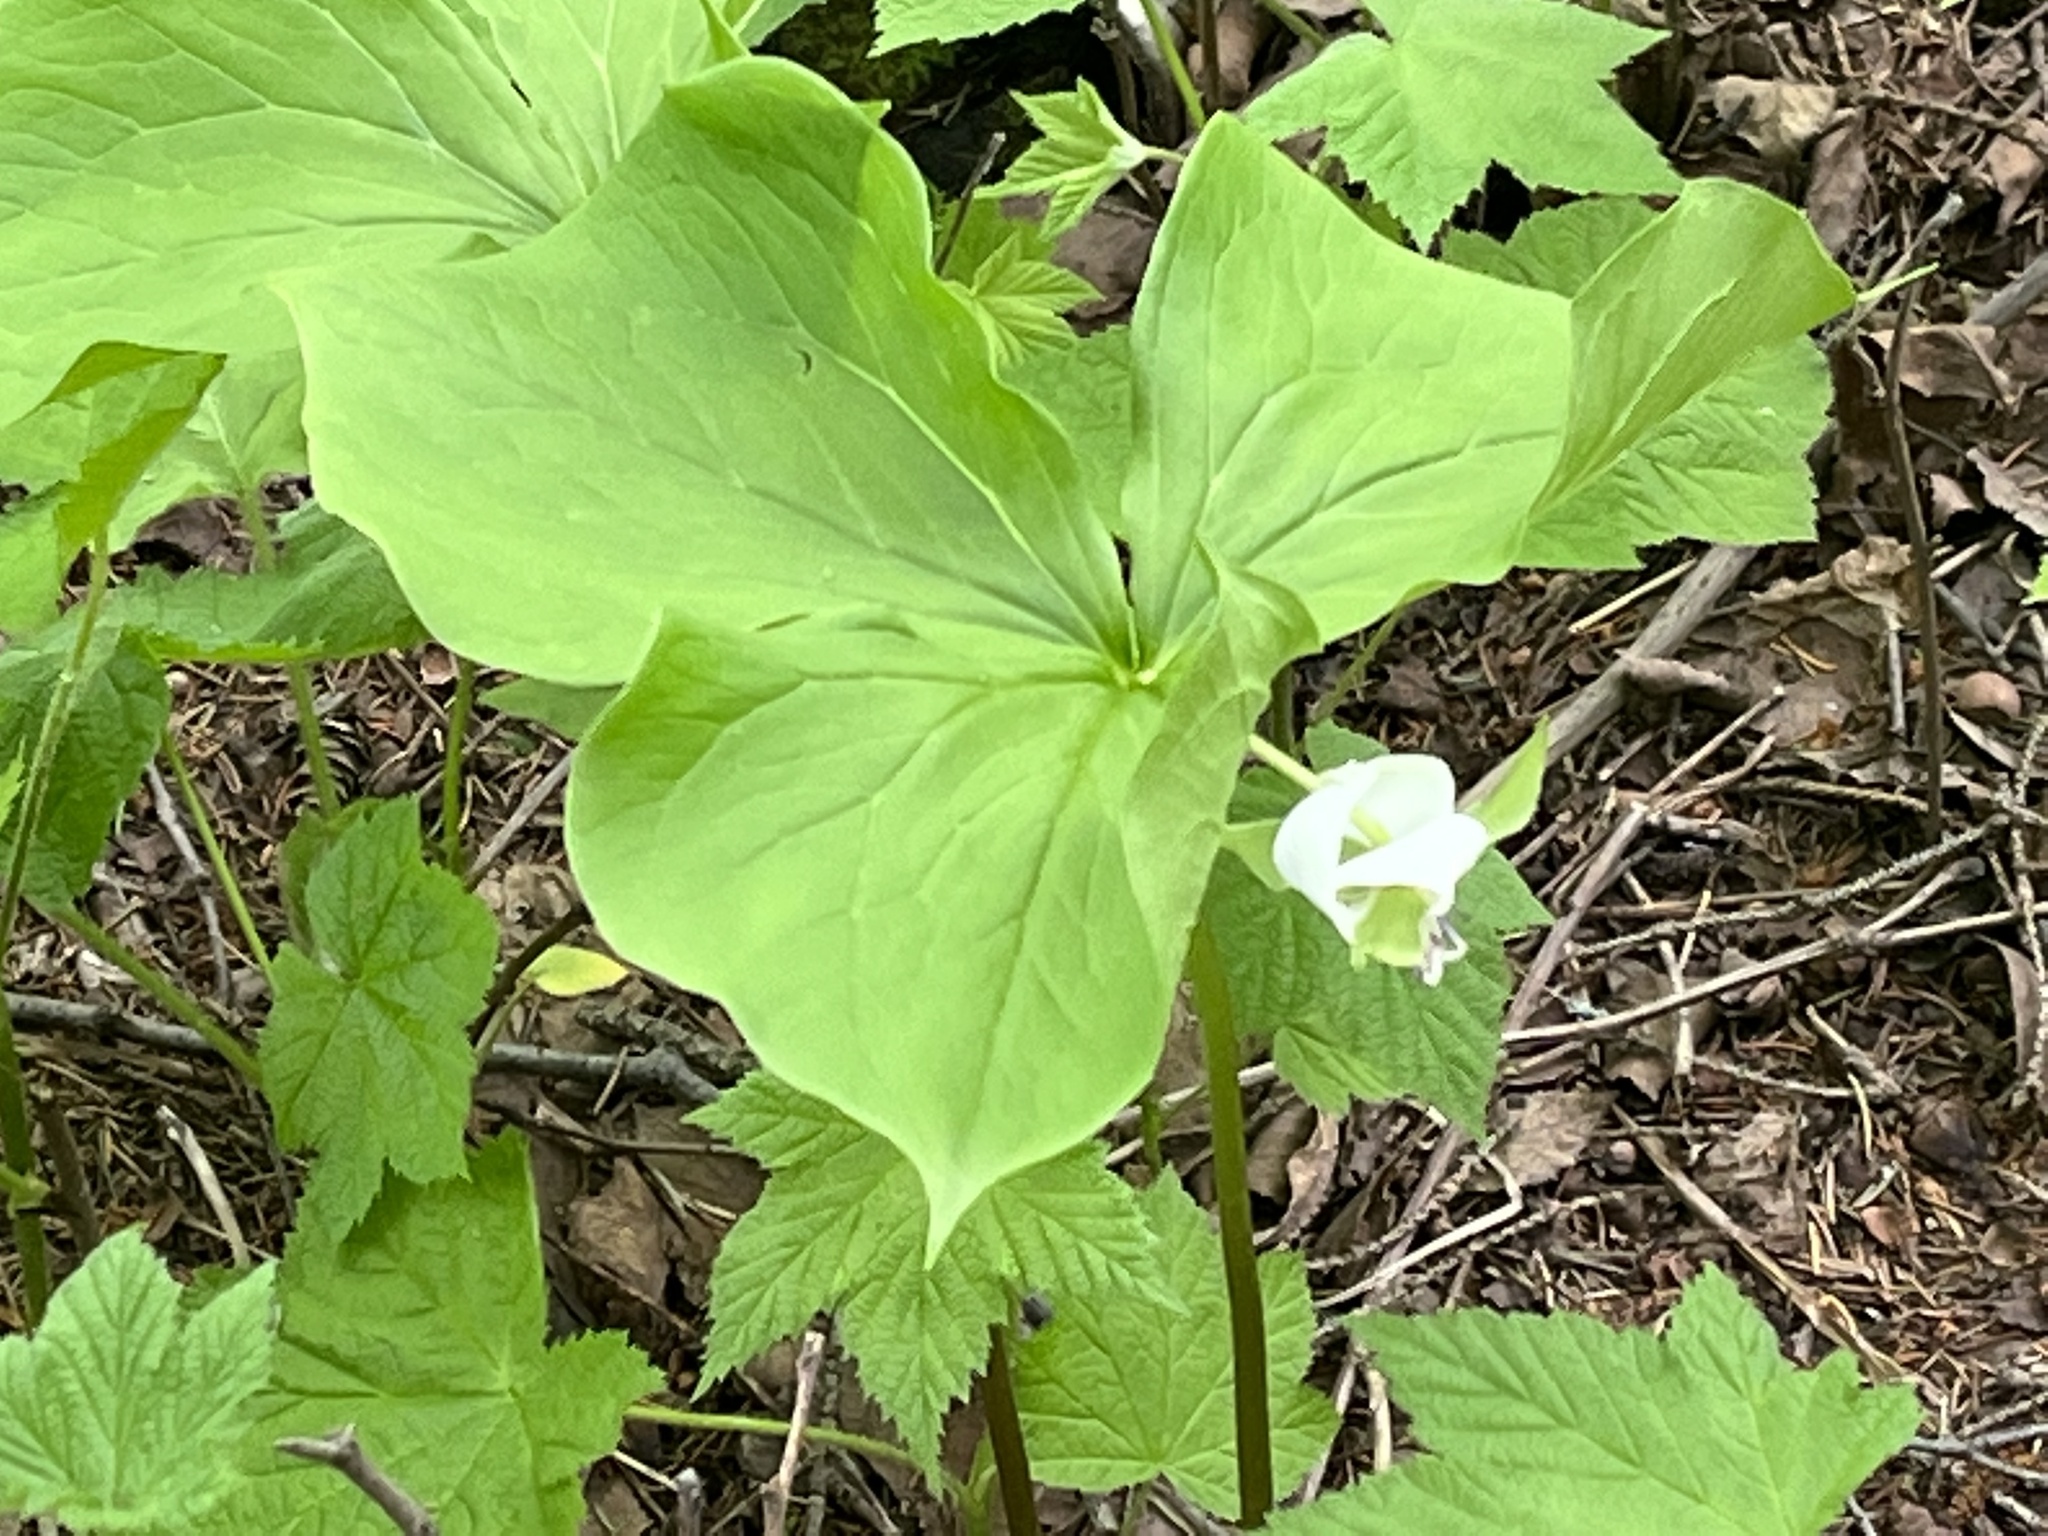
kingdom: Plantae
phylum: Tracheophyta
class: Liliopsida
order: Liliales
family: Melanthiaceae
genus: Trillium
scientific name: Trillium cernuum
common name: Nodding trillium
